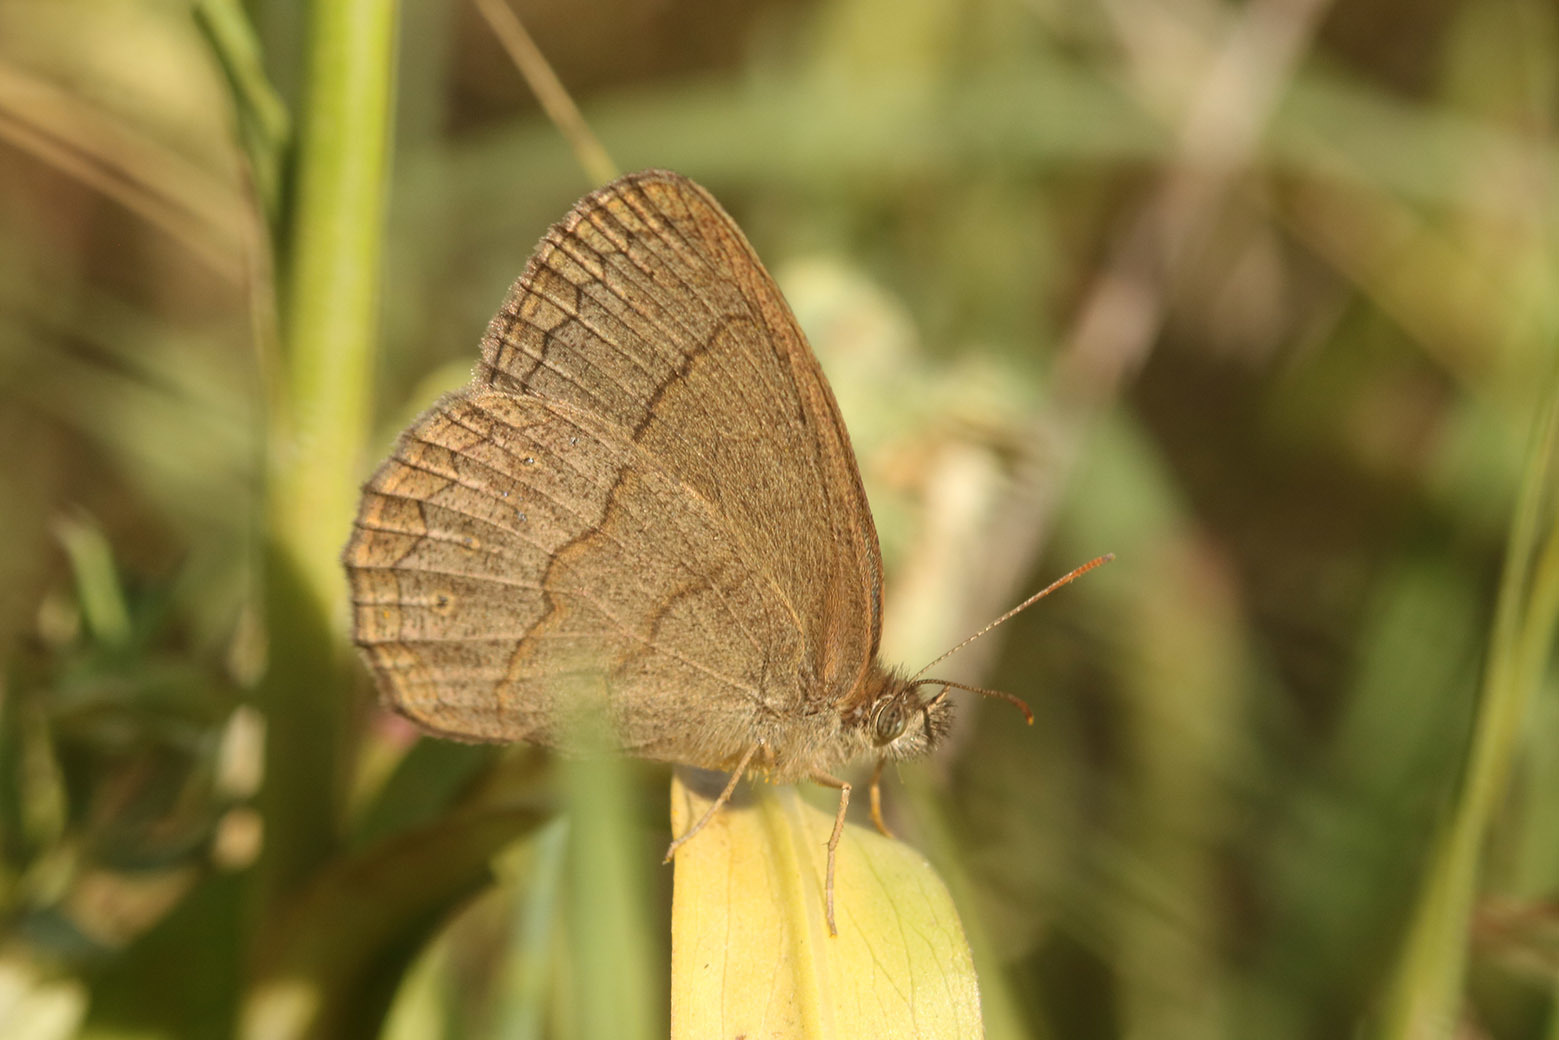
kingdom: Animalia
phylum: Arthropoda
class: Insecta
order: Lepidoptera
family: Nymphalidae
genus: Yphthimoides
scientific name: Yphthimoides celmis
